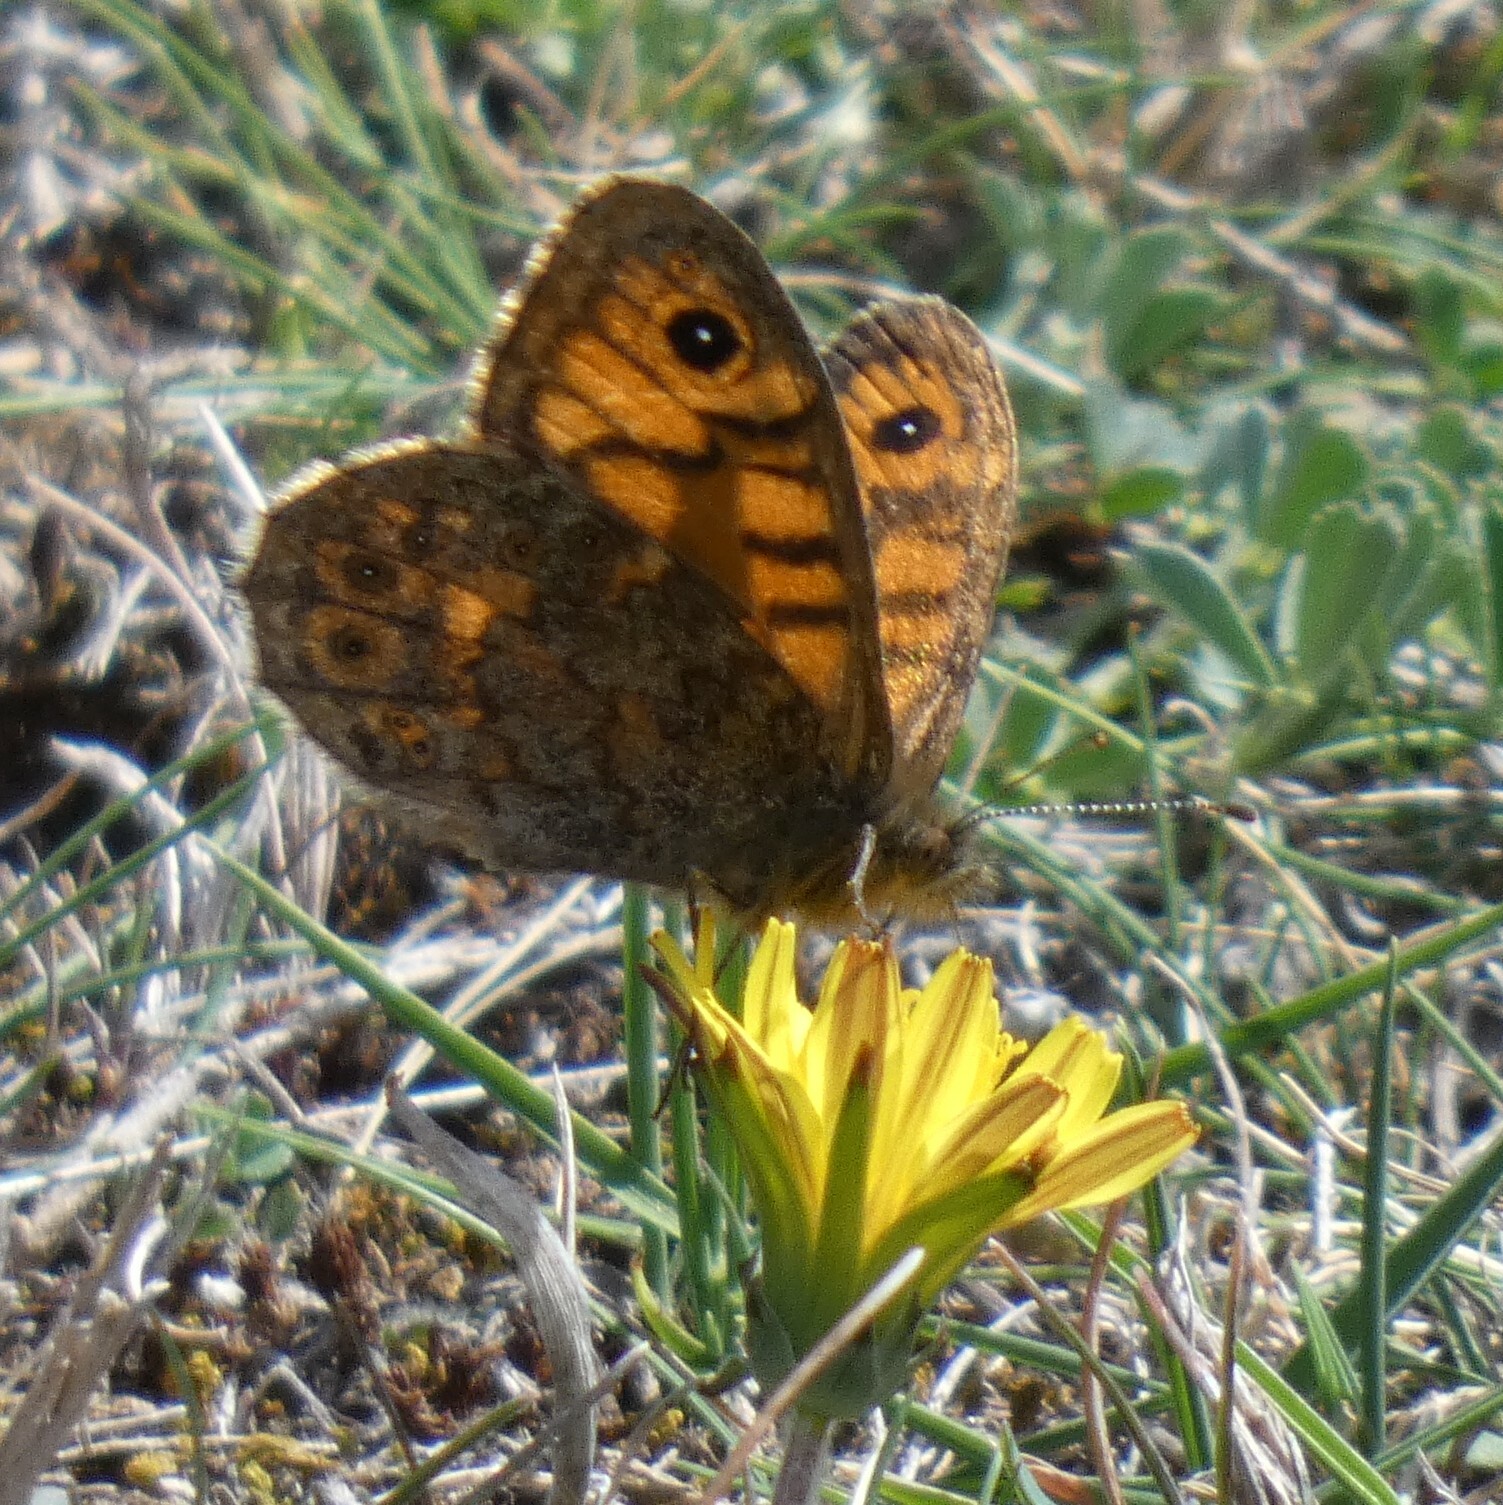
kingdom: Animalia
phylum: Arthropoda
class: Insecta
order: Lepidoptera
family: Nymphalidae
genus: Pararge
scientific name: Pararge Lasiommata megera
